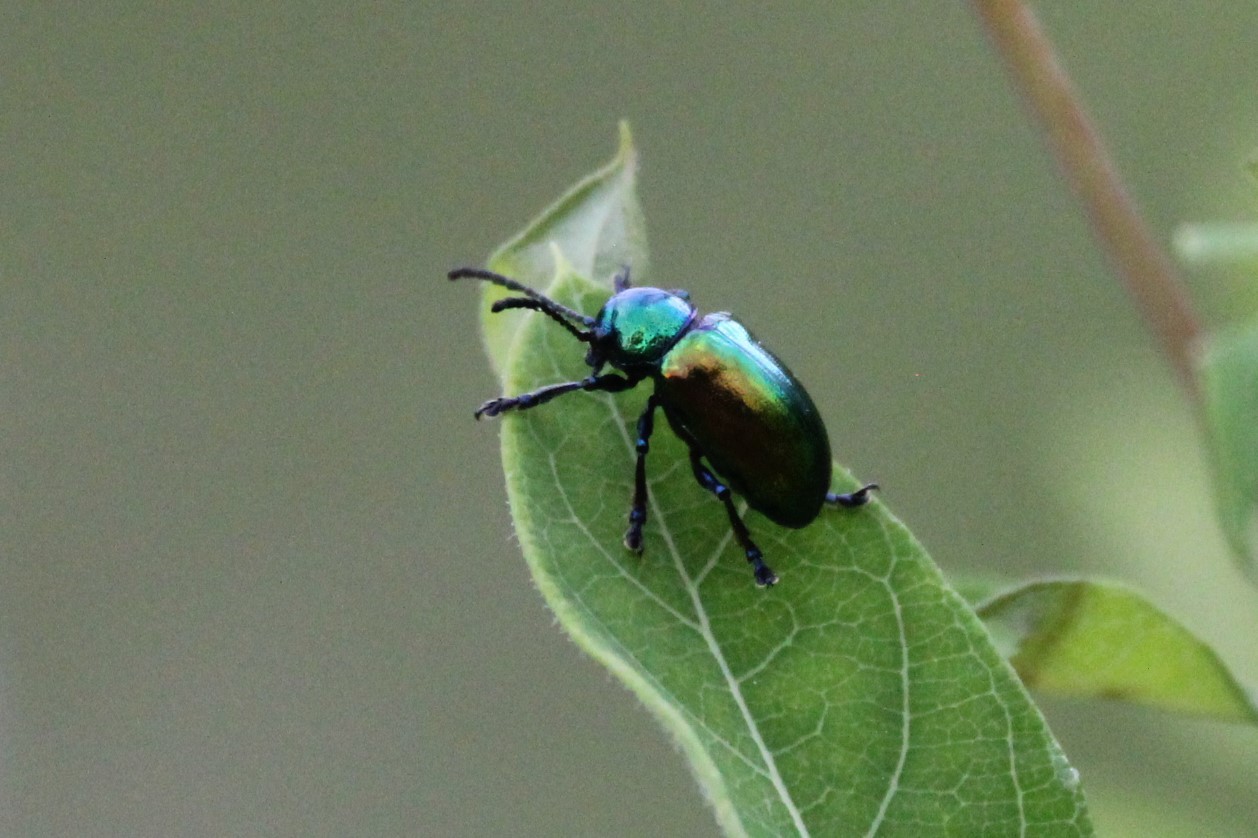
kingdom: Animalia
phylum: Arthropoda
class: Insecta
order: Coleoptera
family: Chrysomelidae
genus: Chrysochus
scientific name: Chrysochus auratus
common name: Dogbane leaf beetle
